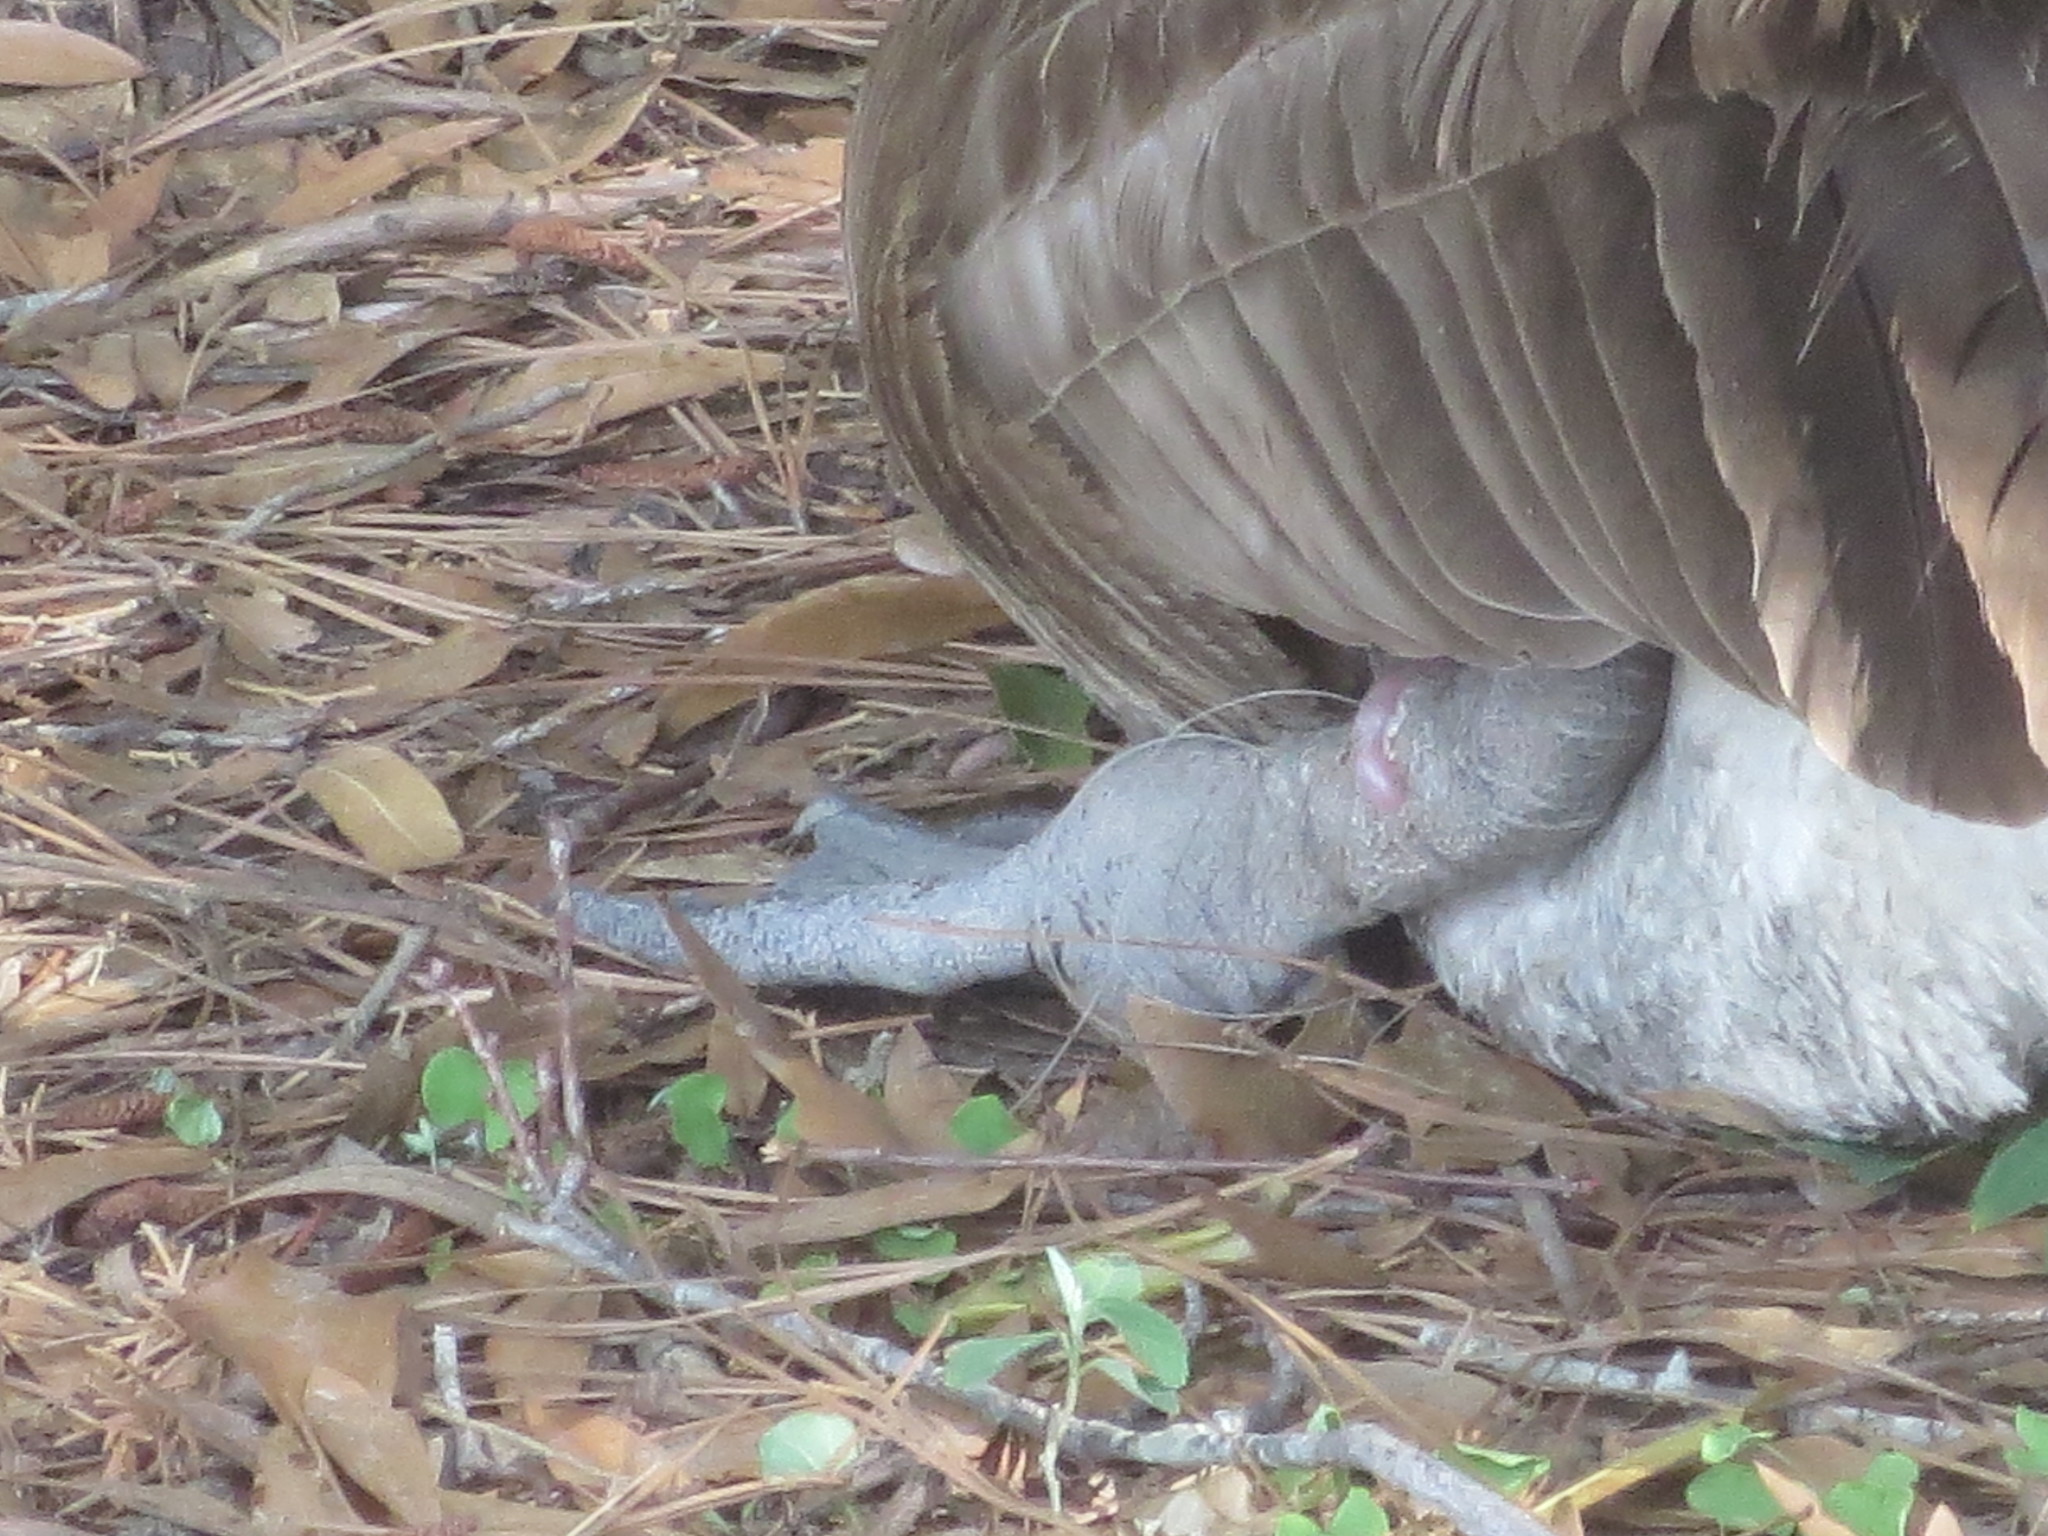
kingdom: Animalia
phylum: Chordata
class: Aves
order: Anseriformes
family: Anatidae
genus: Branta
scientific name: Branta canadensis
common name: Canada goose
